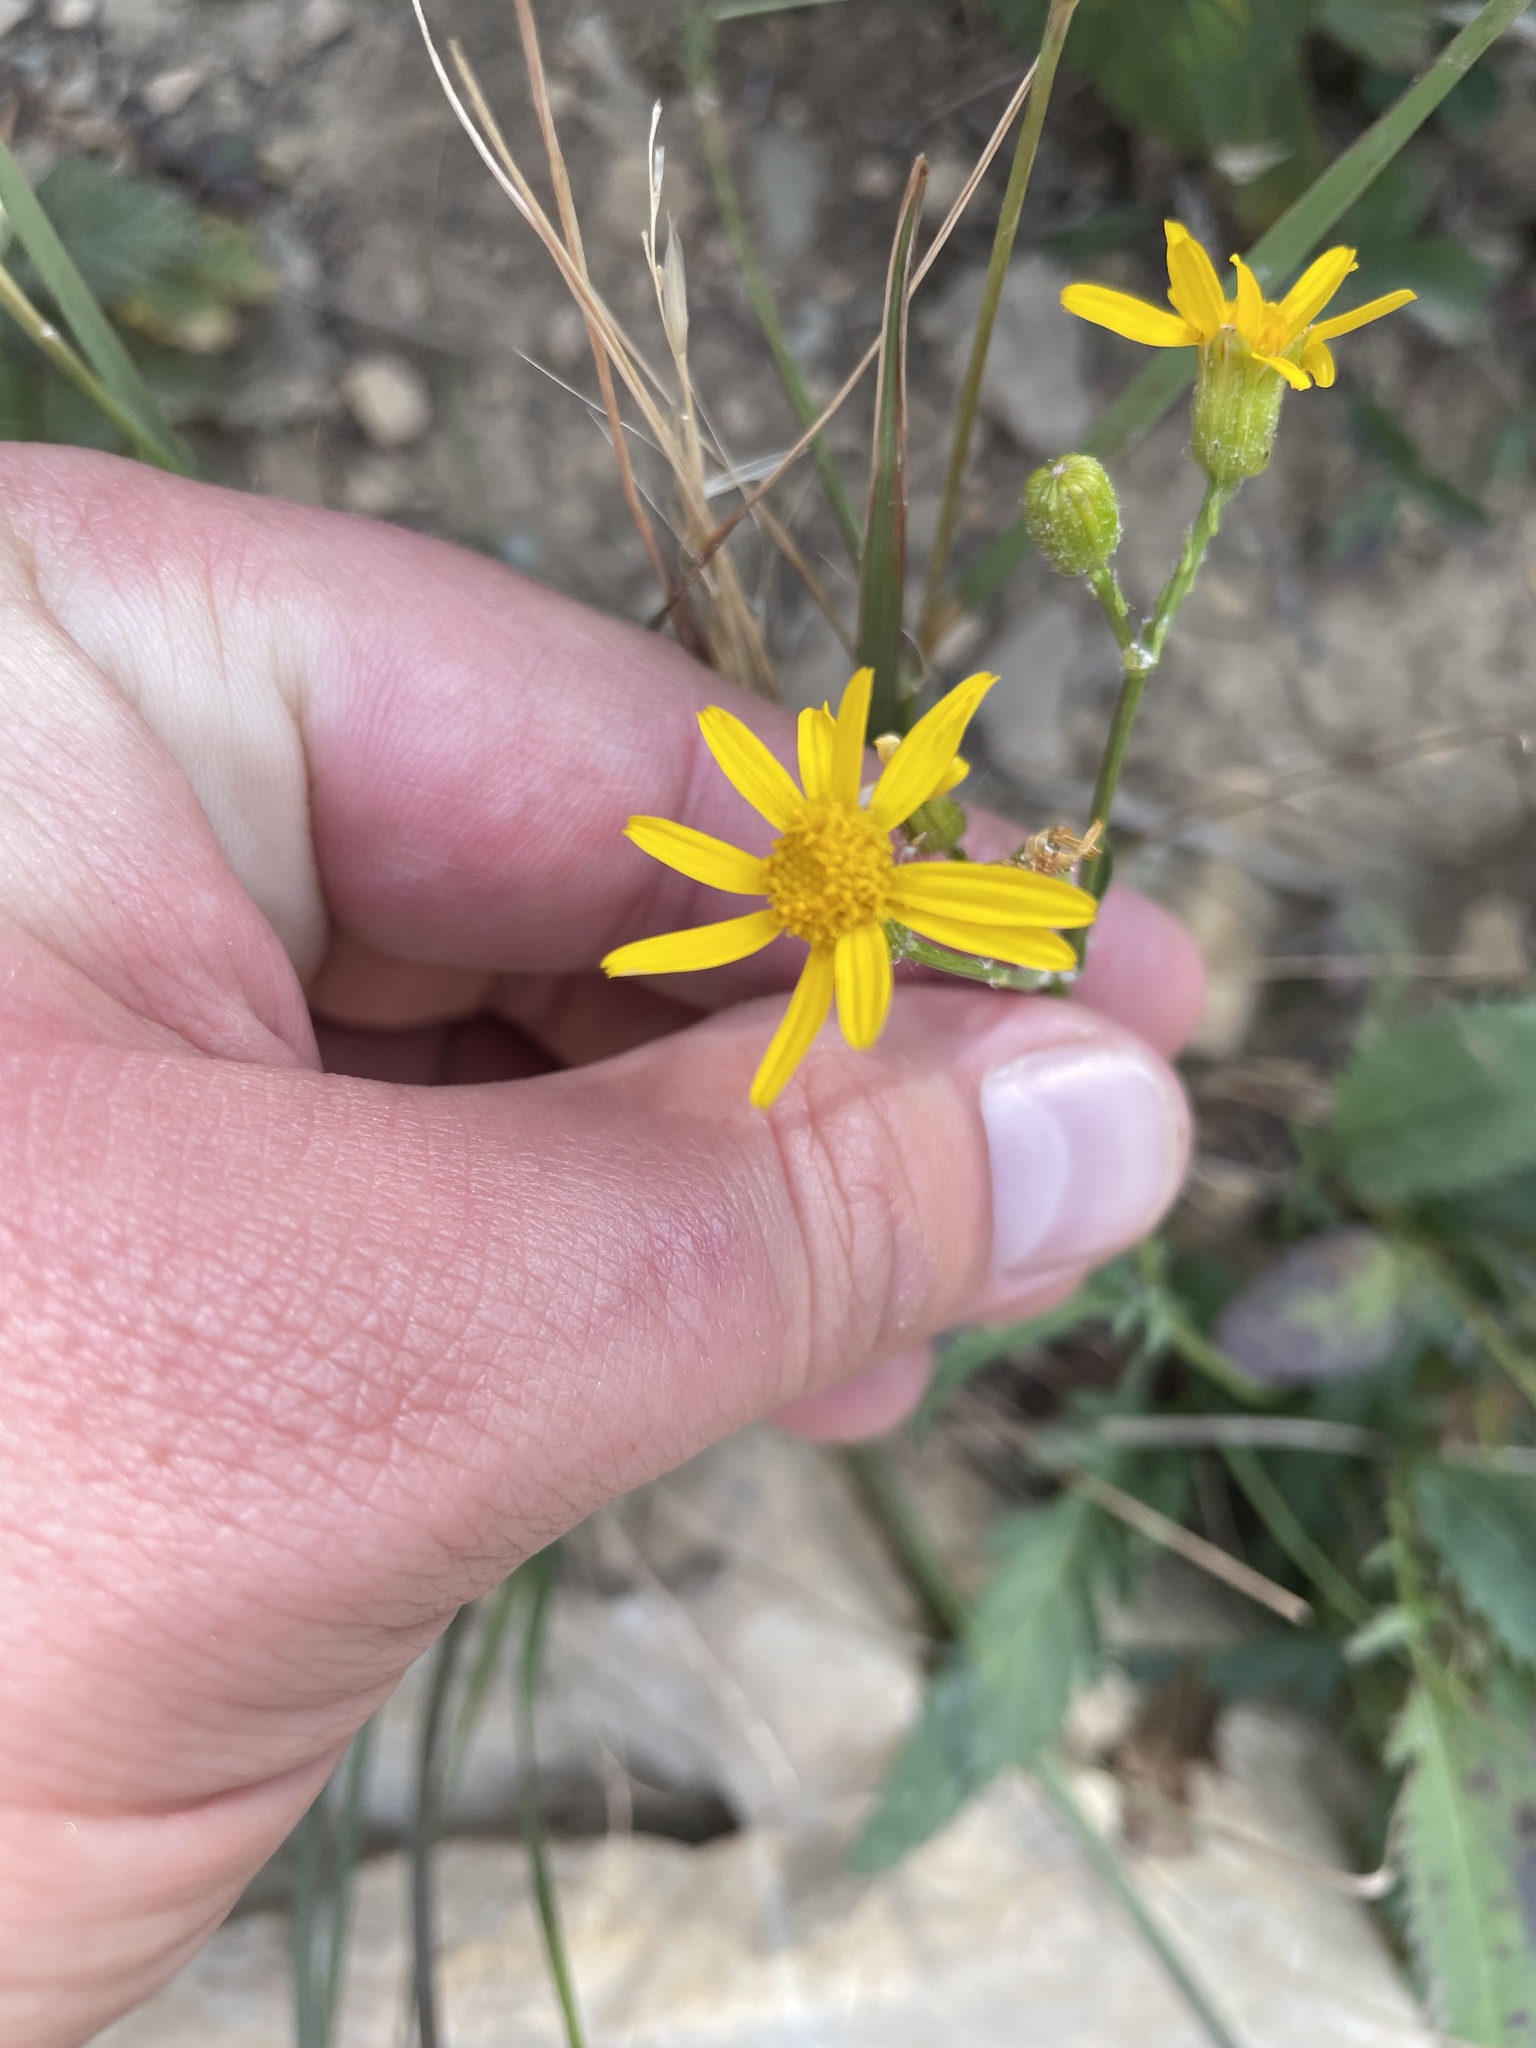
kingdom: Plantae
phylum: Tracheophyta
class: Magnoliopsida
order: Asterales
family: Asteraceae
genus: Packera
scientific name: Packera paupercula
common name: Balsam groundsel
